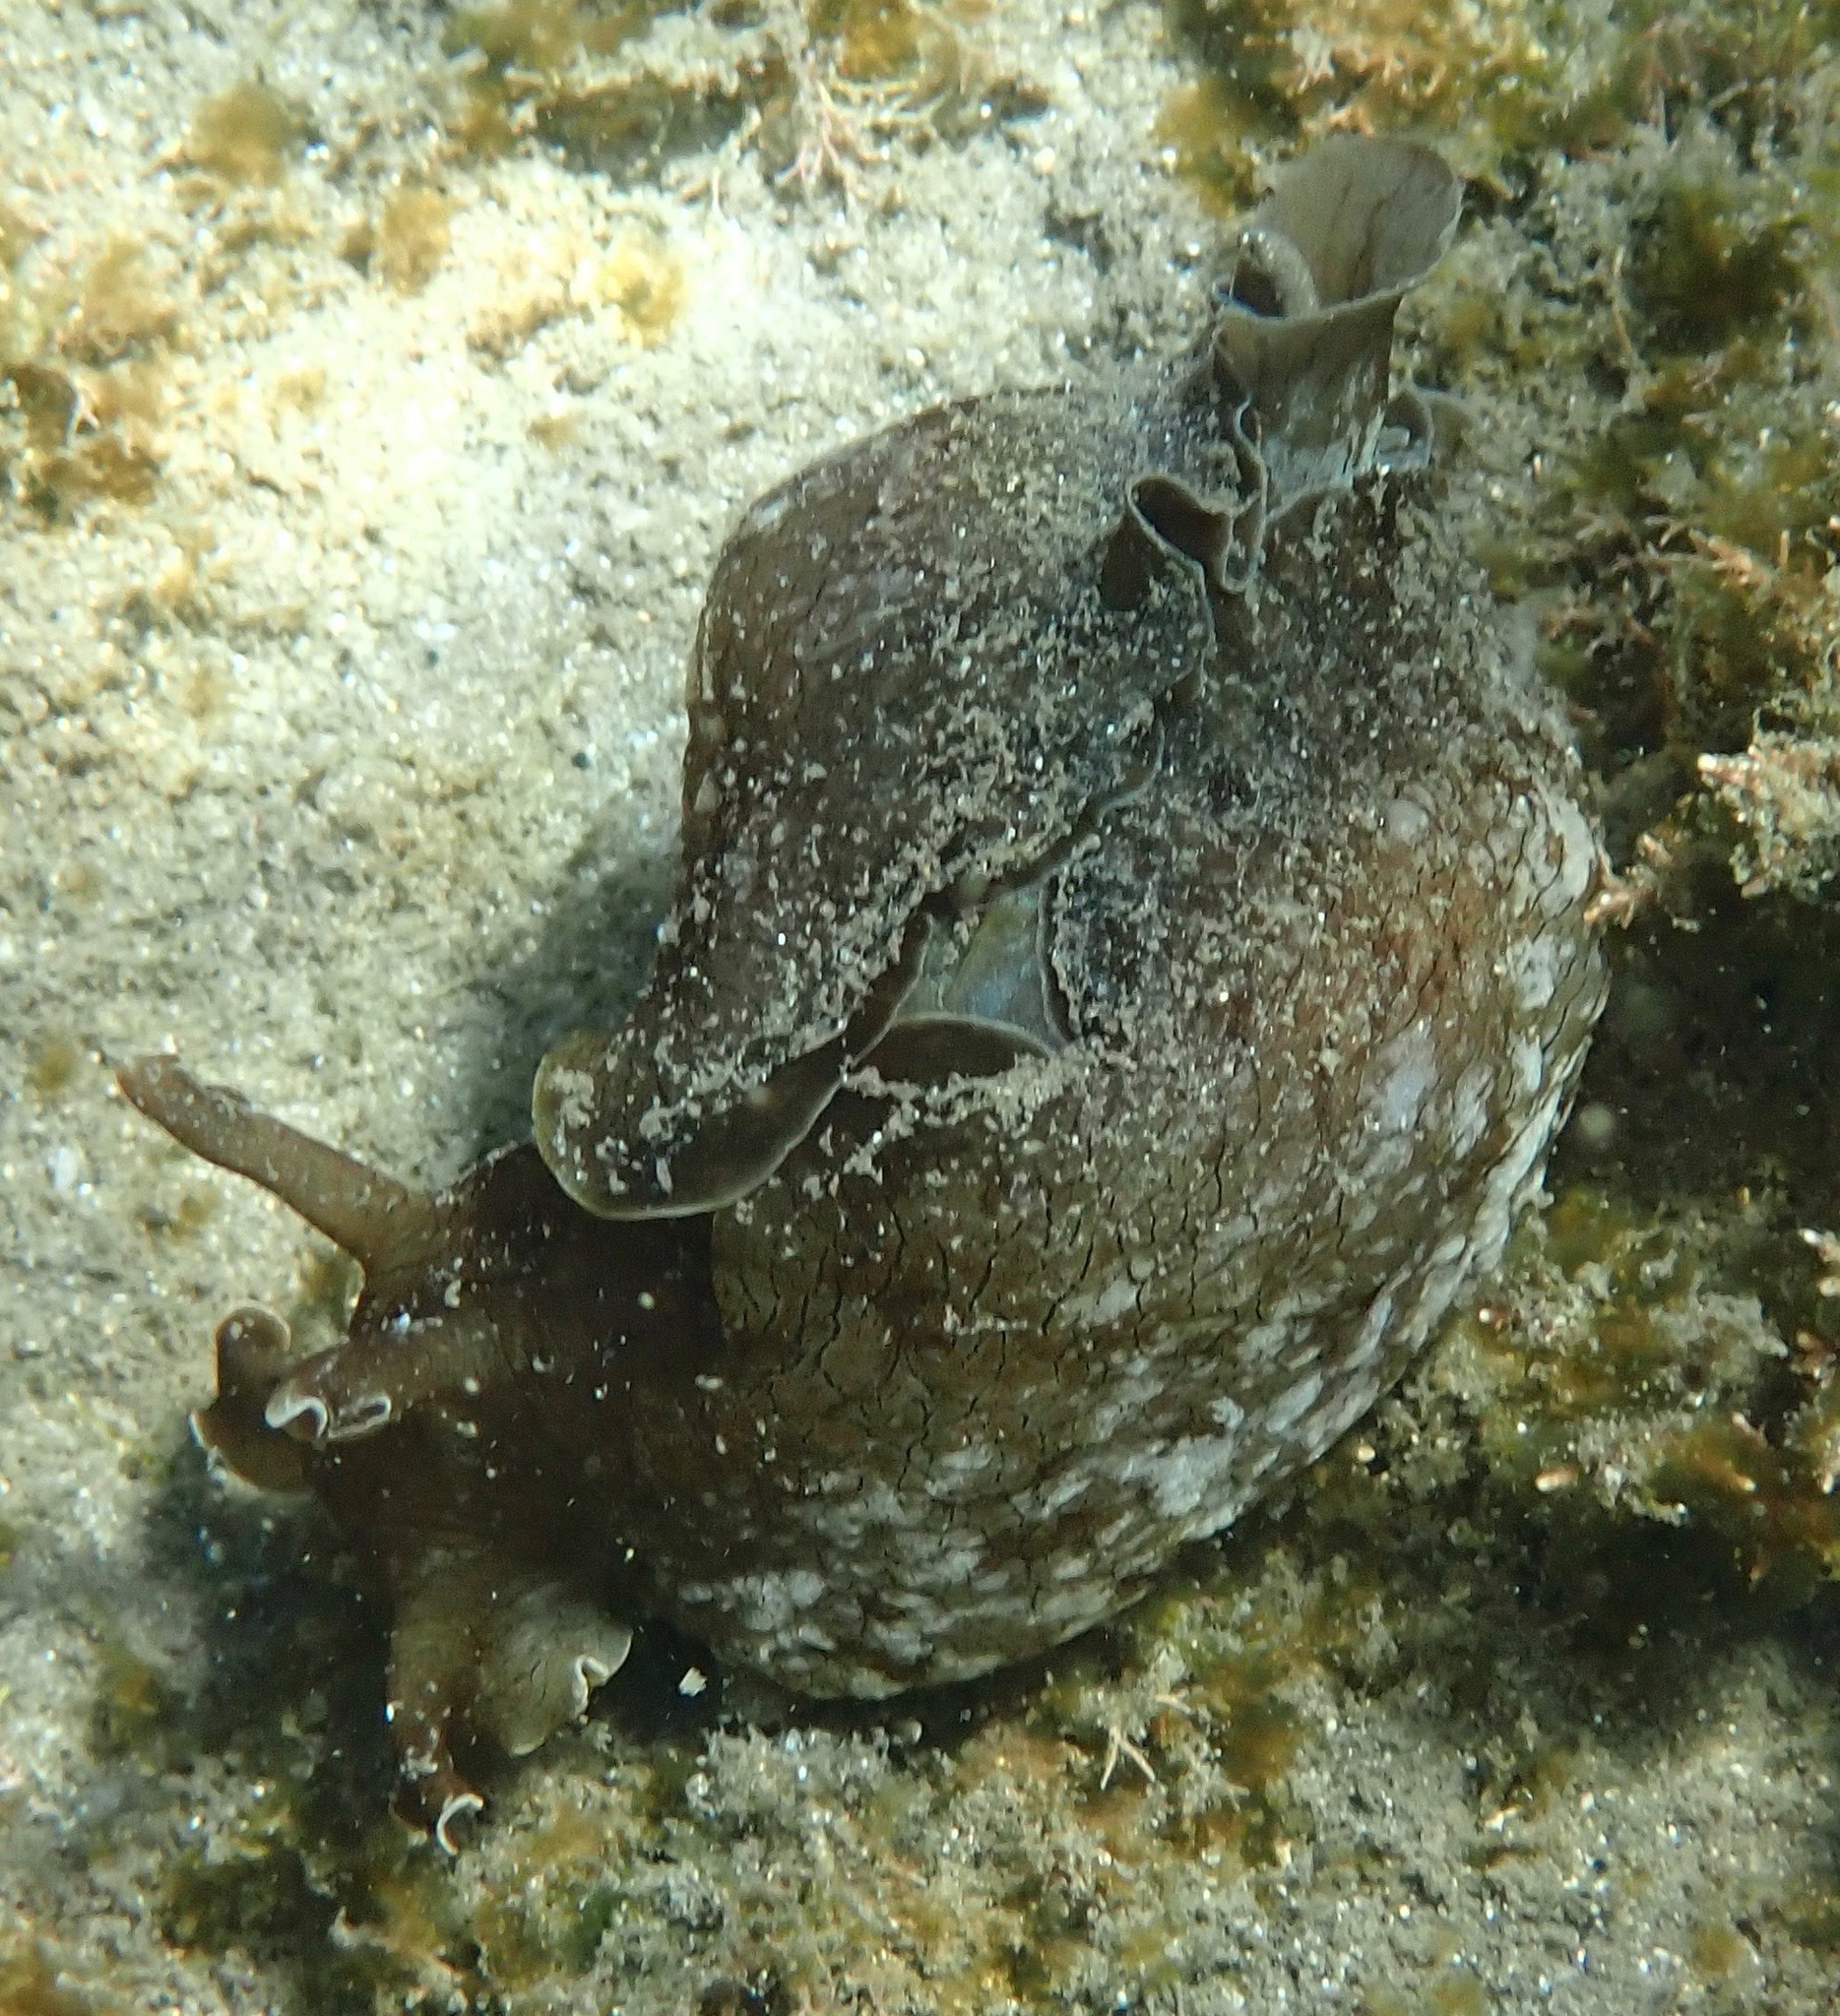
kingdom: Animalia
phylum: Mollusca
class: Gastropoda
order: Aplysiida
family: Aplysiidae
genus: Aplysia
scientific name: Aplysia sydneyensis
